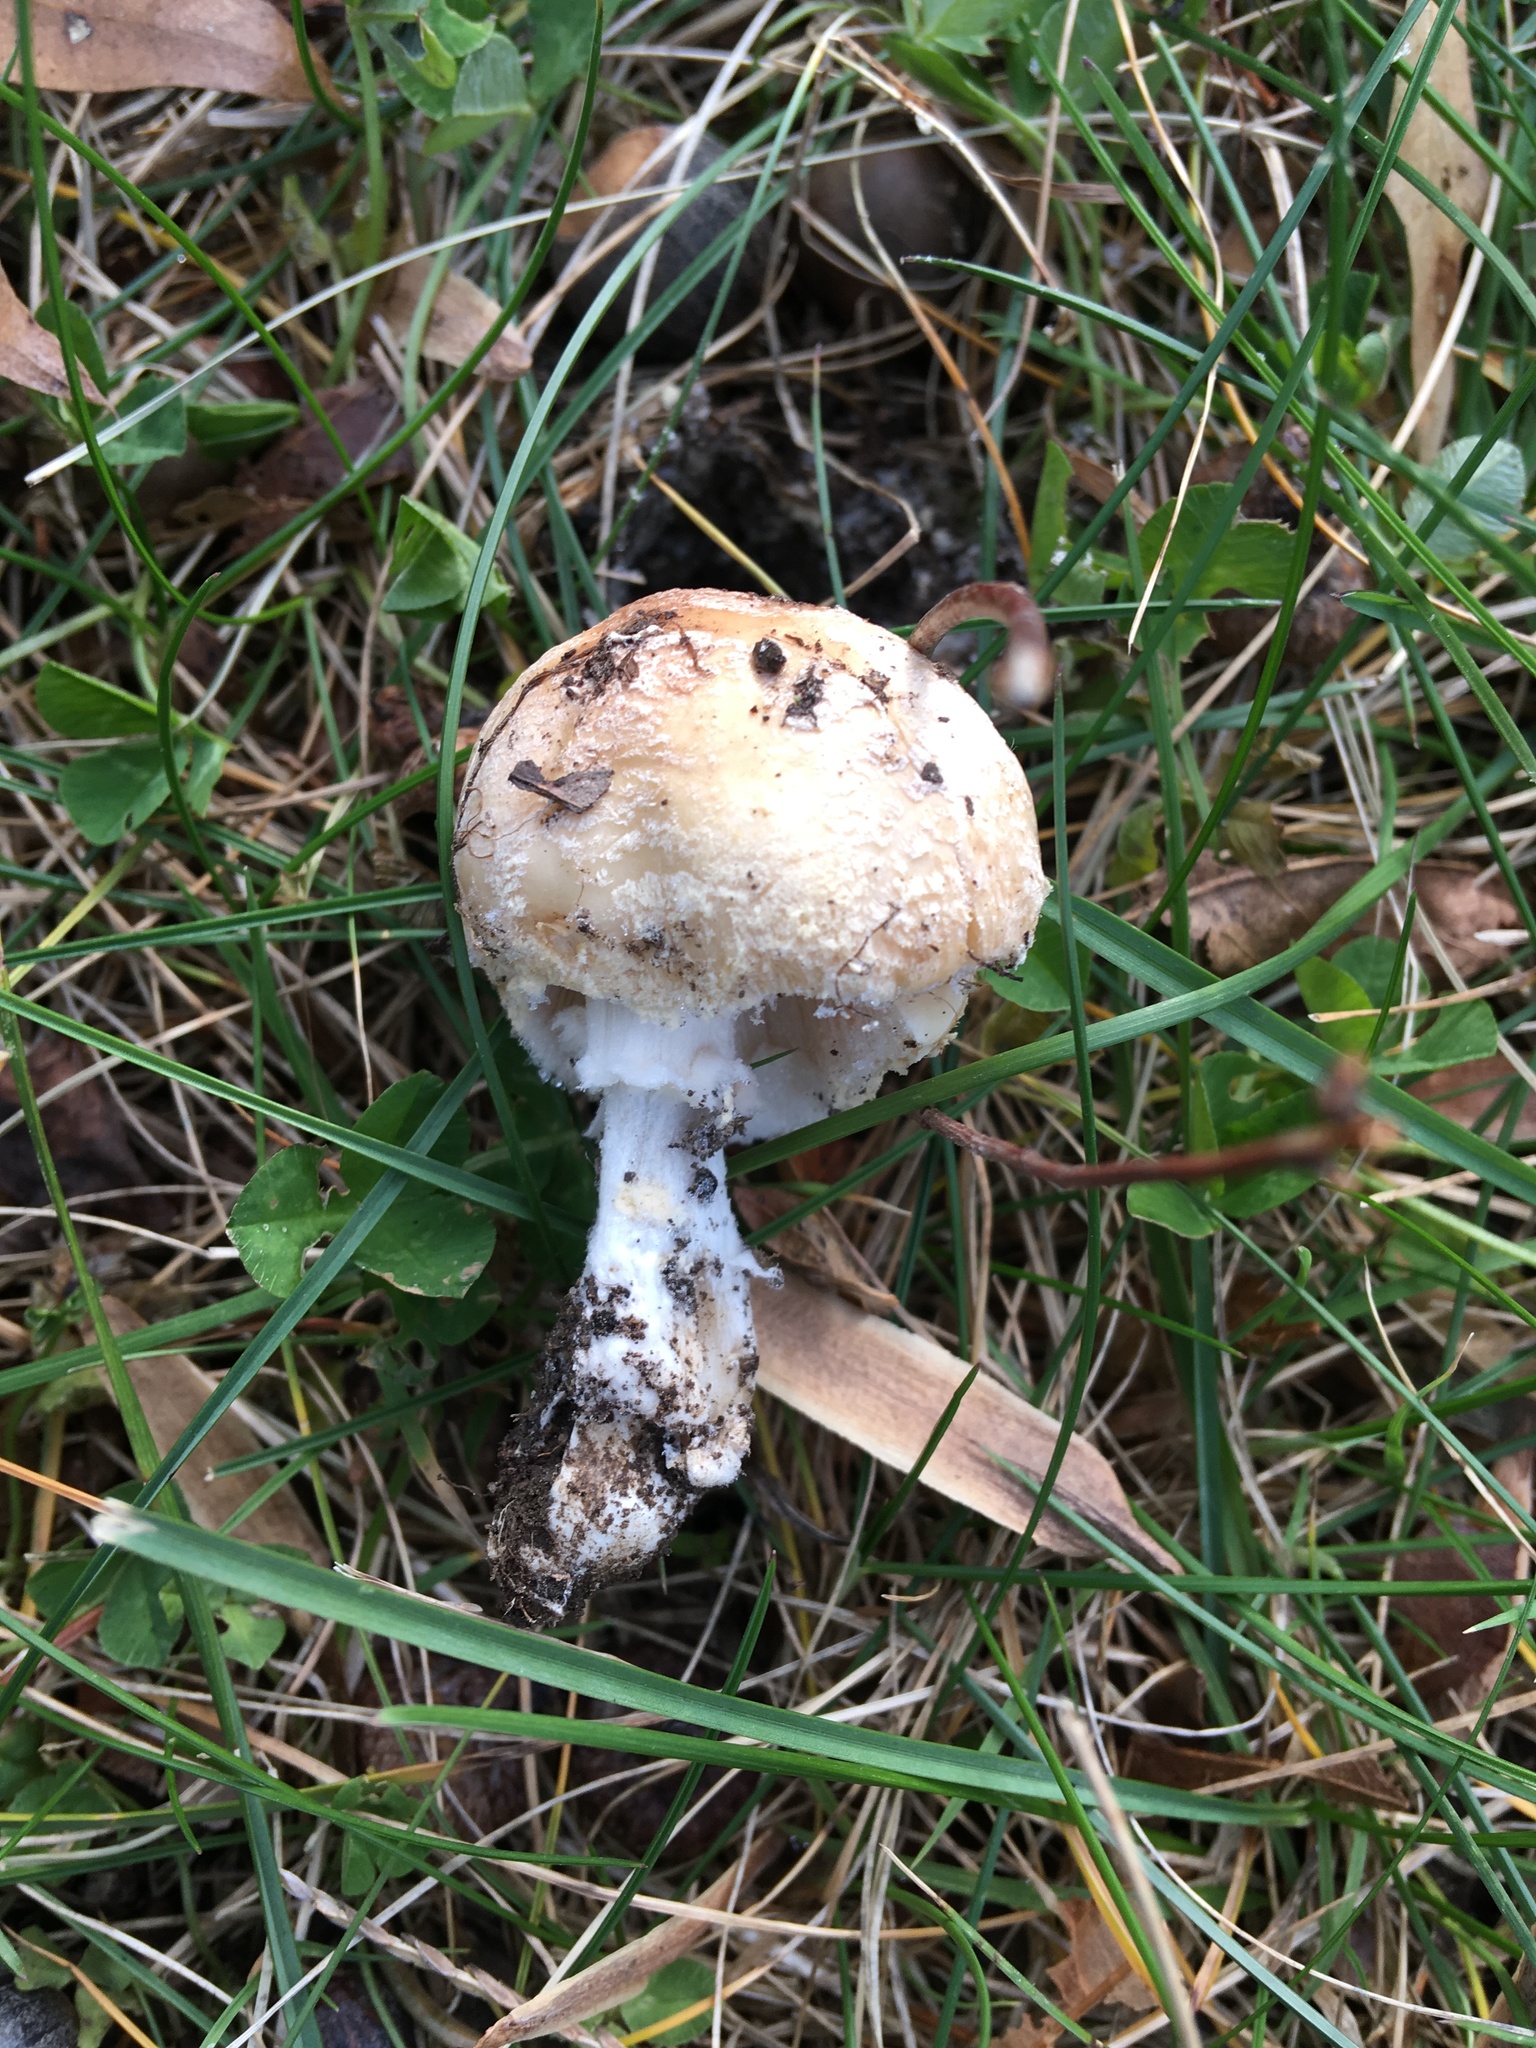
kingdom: Fungi
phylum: Basidiomycota
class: Agaricomycetes
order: Agaricales
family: Amanitaceae
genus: Amanita
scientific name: Amanita crenulata
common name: Poison champagne amanita
